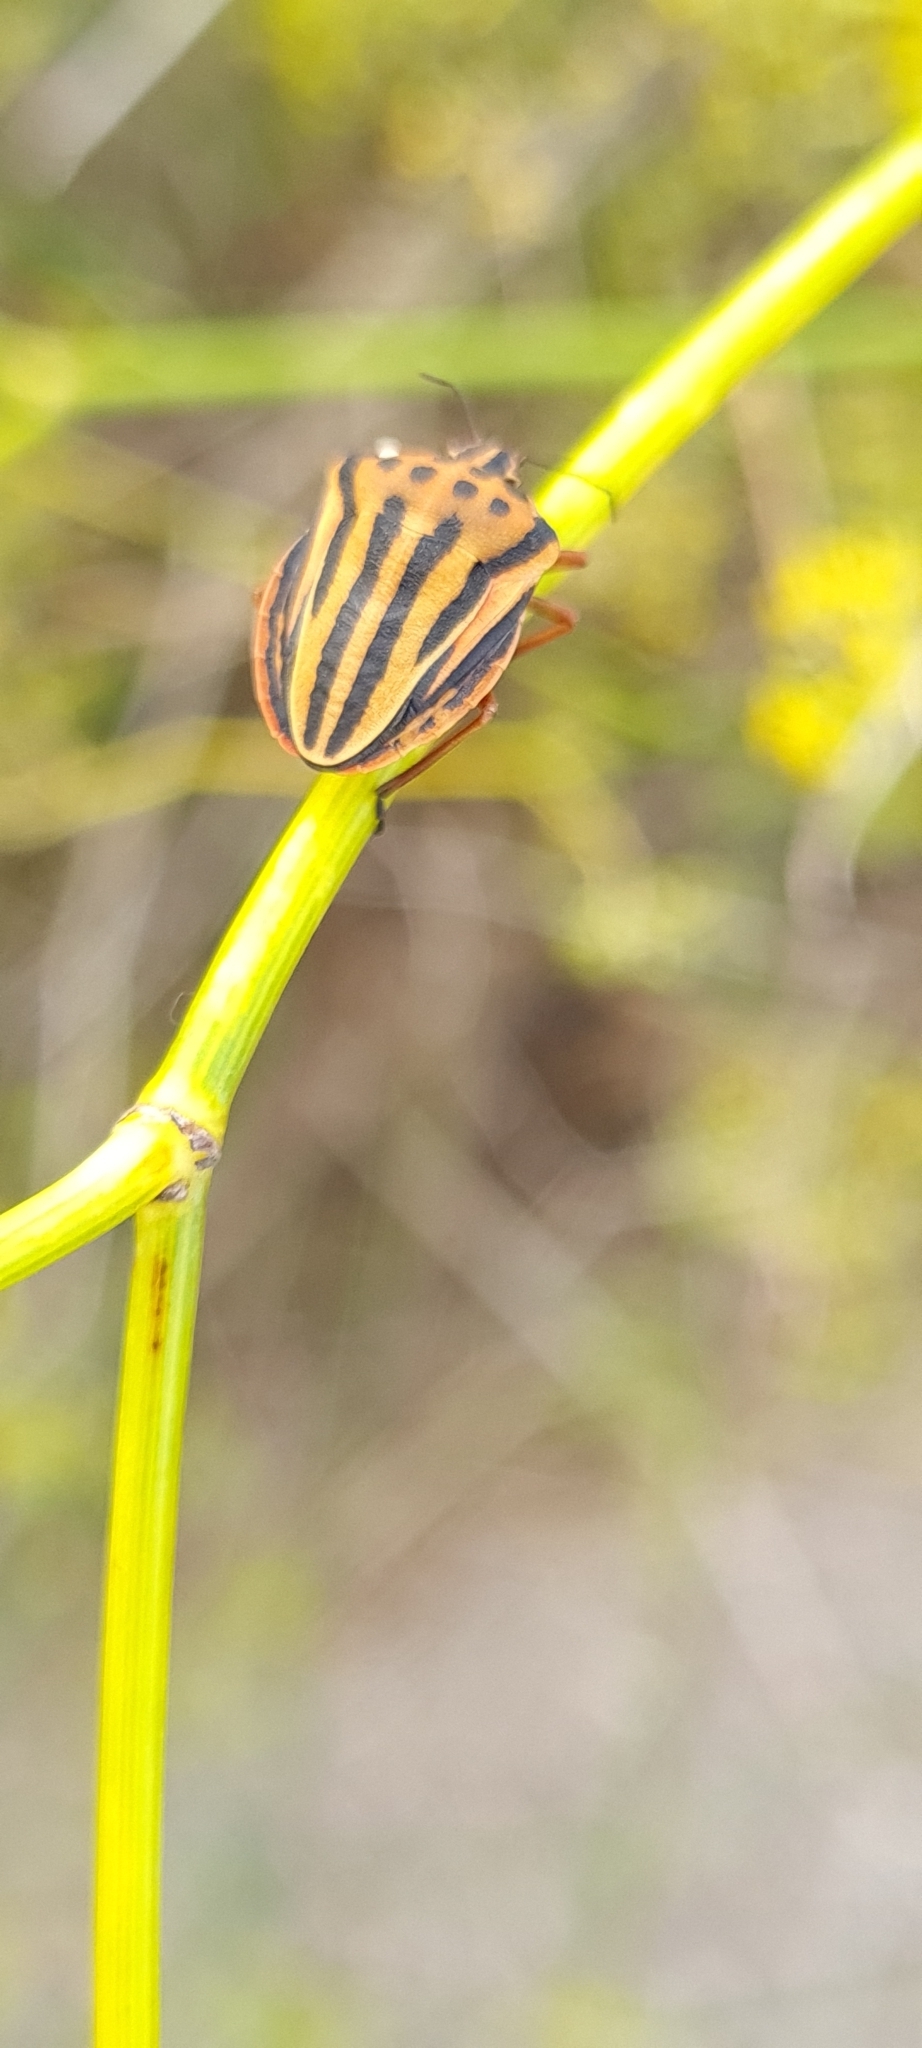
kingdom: Animalia
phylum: Arthropoda
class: Insecta
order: Hemiptera
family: Pentatomidae
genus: Graphosoma
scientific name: Graphosoma semipunctatum
